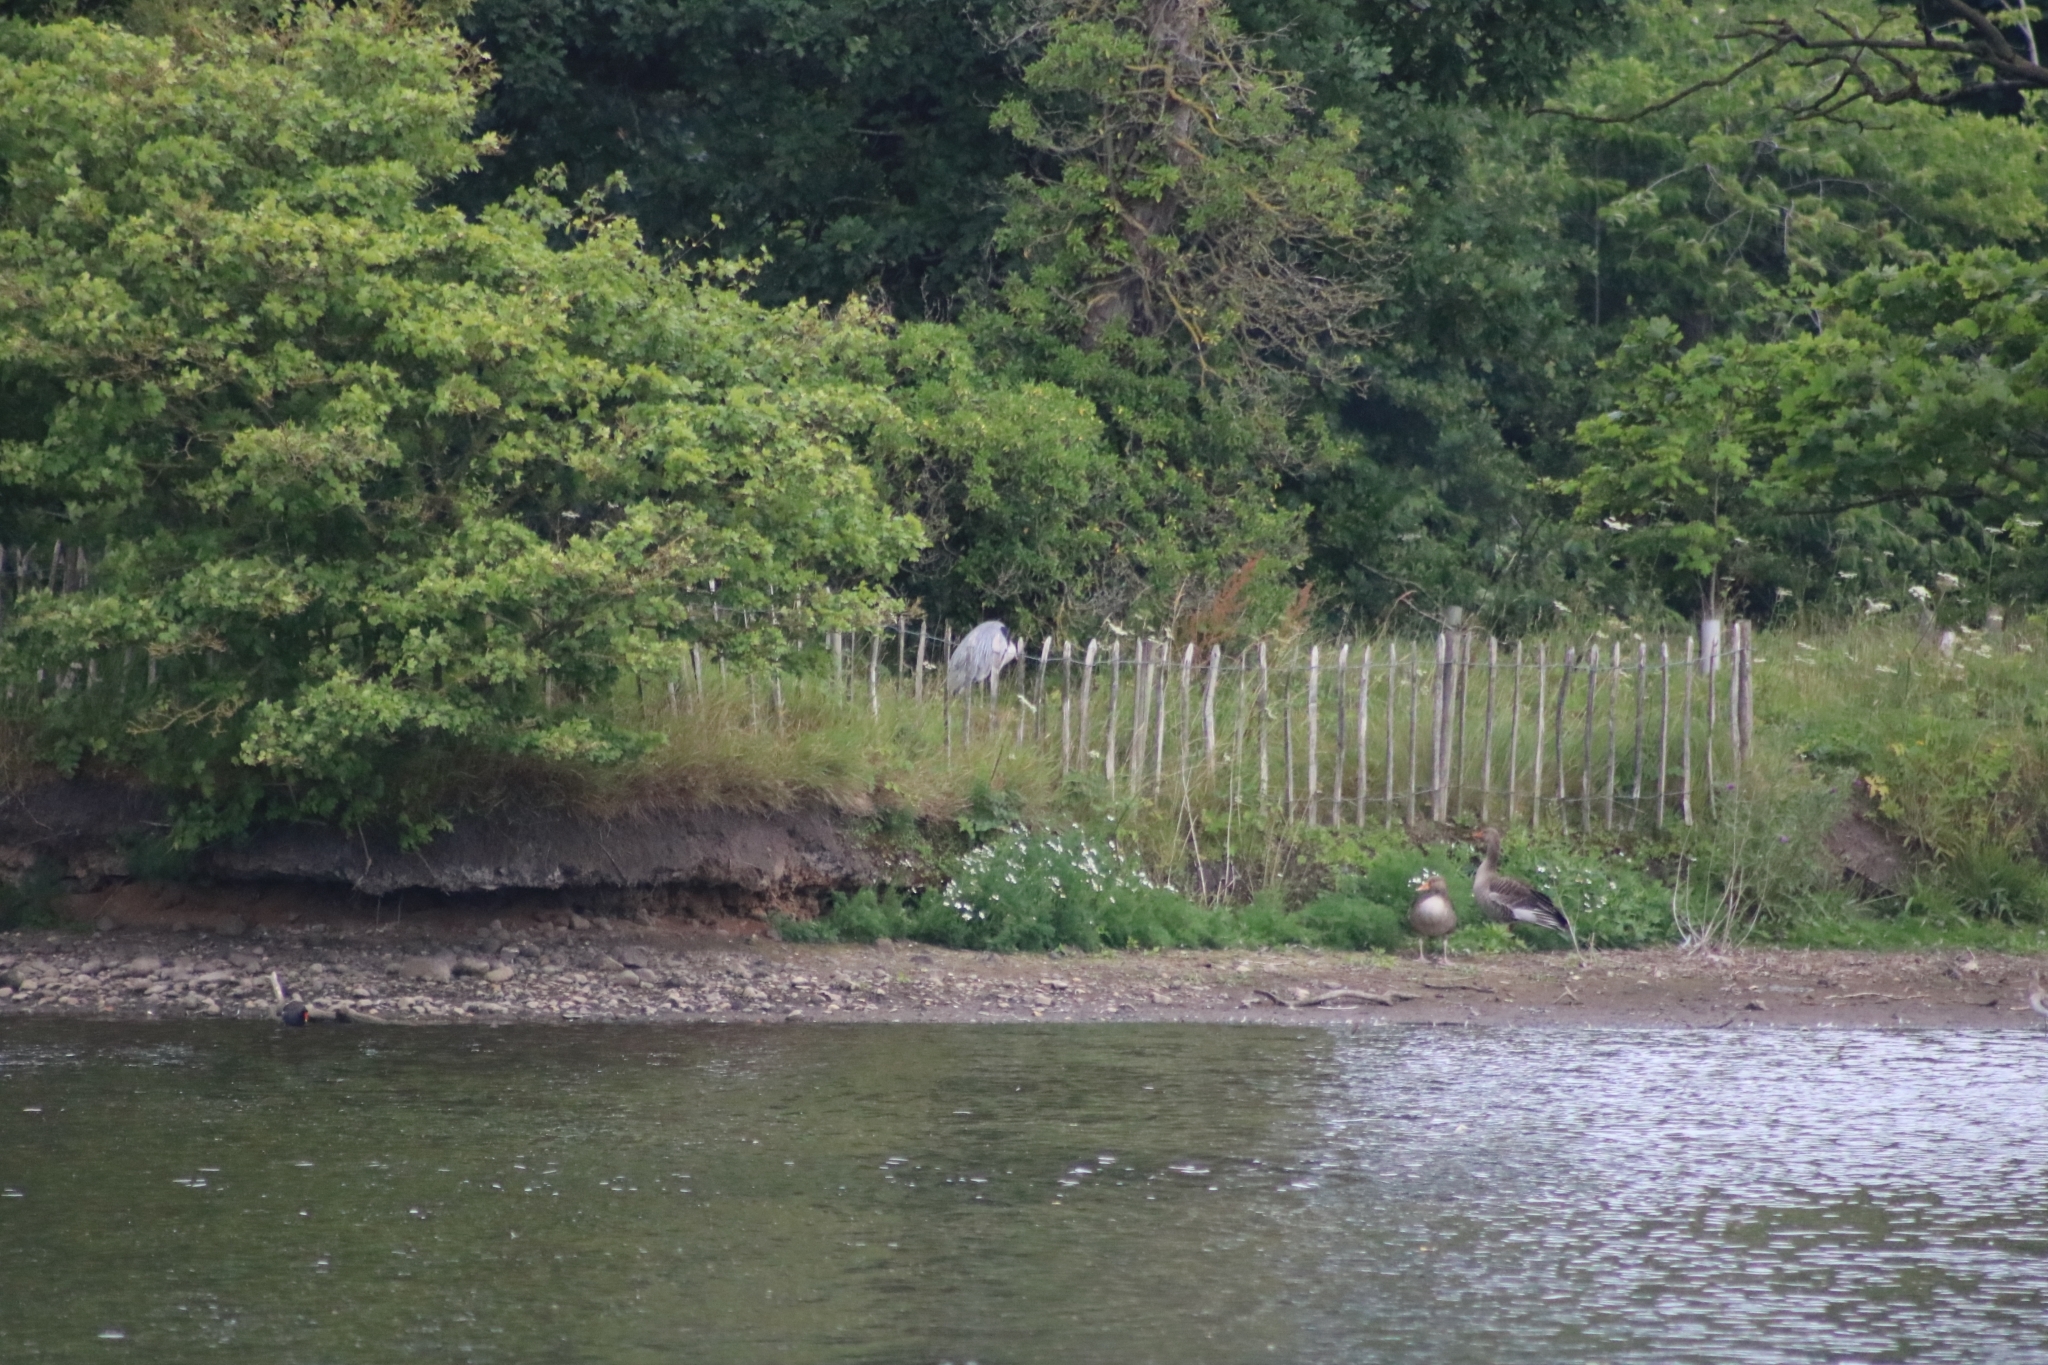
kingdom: Animalia
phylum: Chordata
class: Aves
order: Pelecaniformes
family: Ardeidae
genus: Ardea
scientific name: Ardea cinerea
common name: Grey heron
